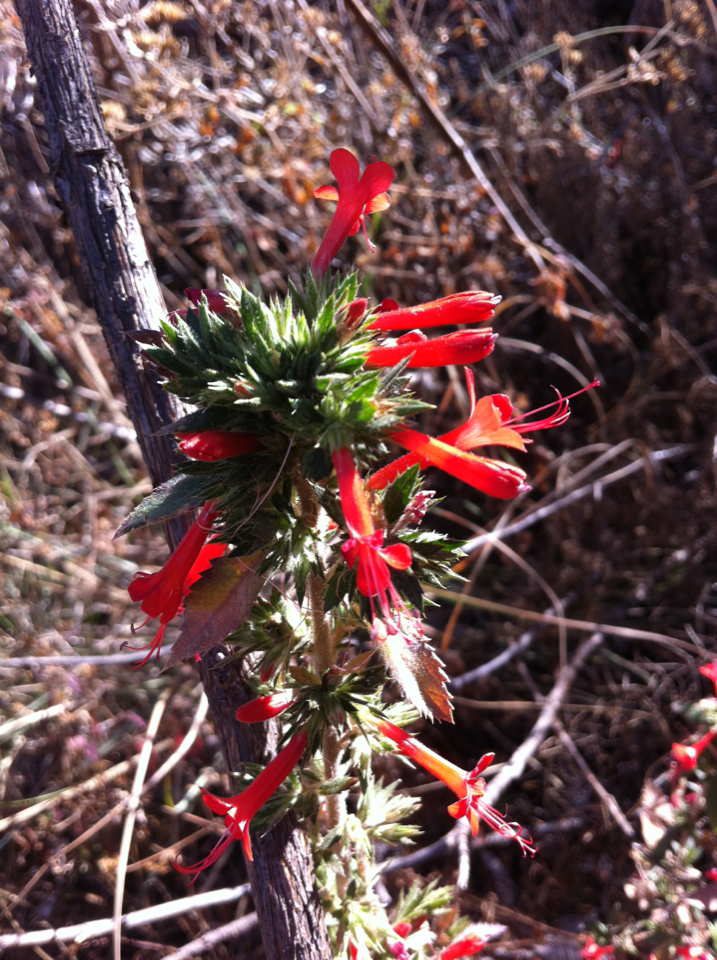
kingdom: Plantae
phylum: Tracheophyta
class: Magnoliopsida
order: Ericales
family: Polemoniaceae
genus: Loeselia
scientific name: Loeselia mexicana
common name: Mexican false calico
